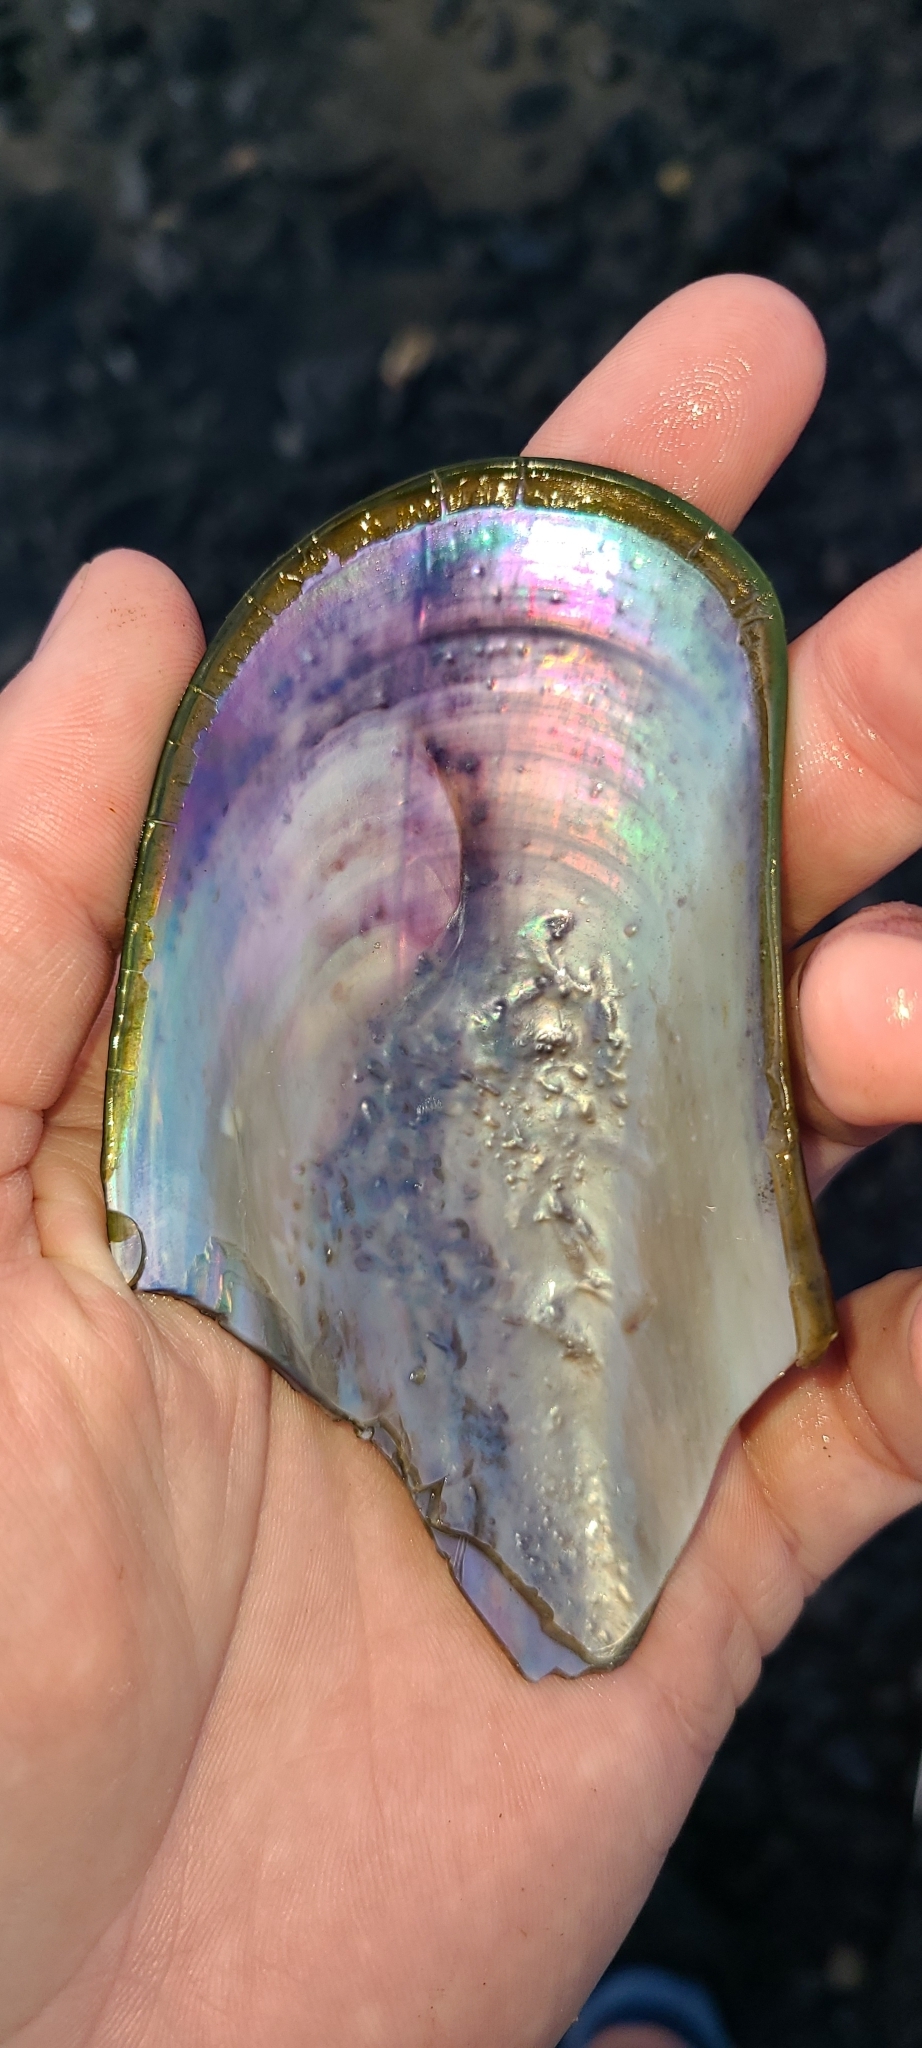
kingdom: Animalia
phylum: Mollusca
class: Bivalvia
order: Mytilida
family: Mytilidae
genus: Perna
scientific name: Perna canaliculus
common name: New zealand greenshelltm
